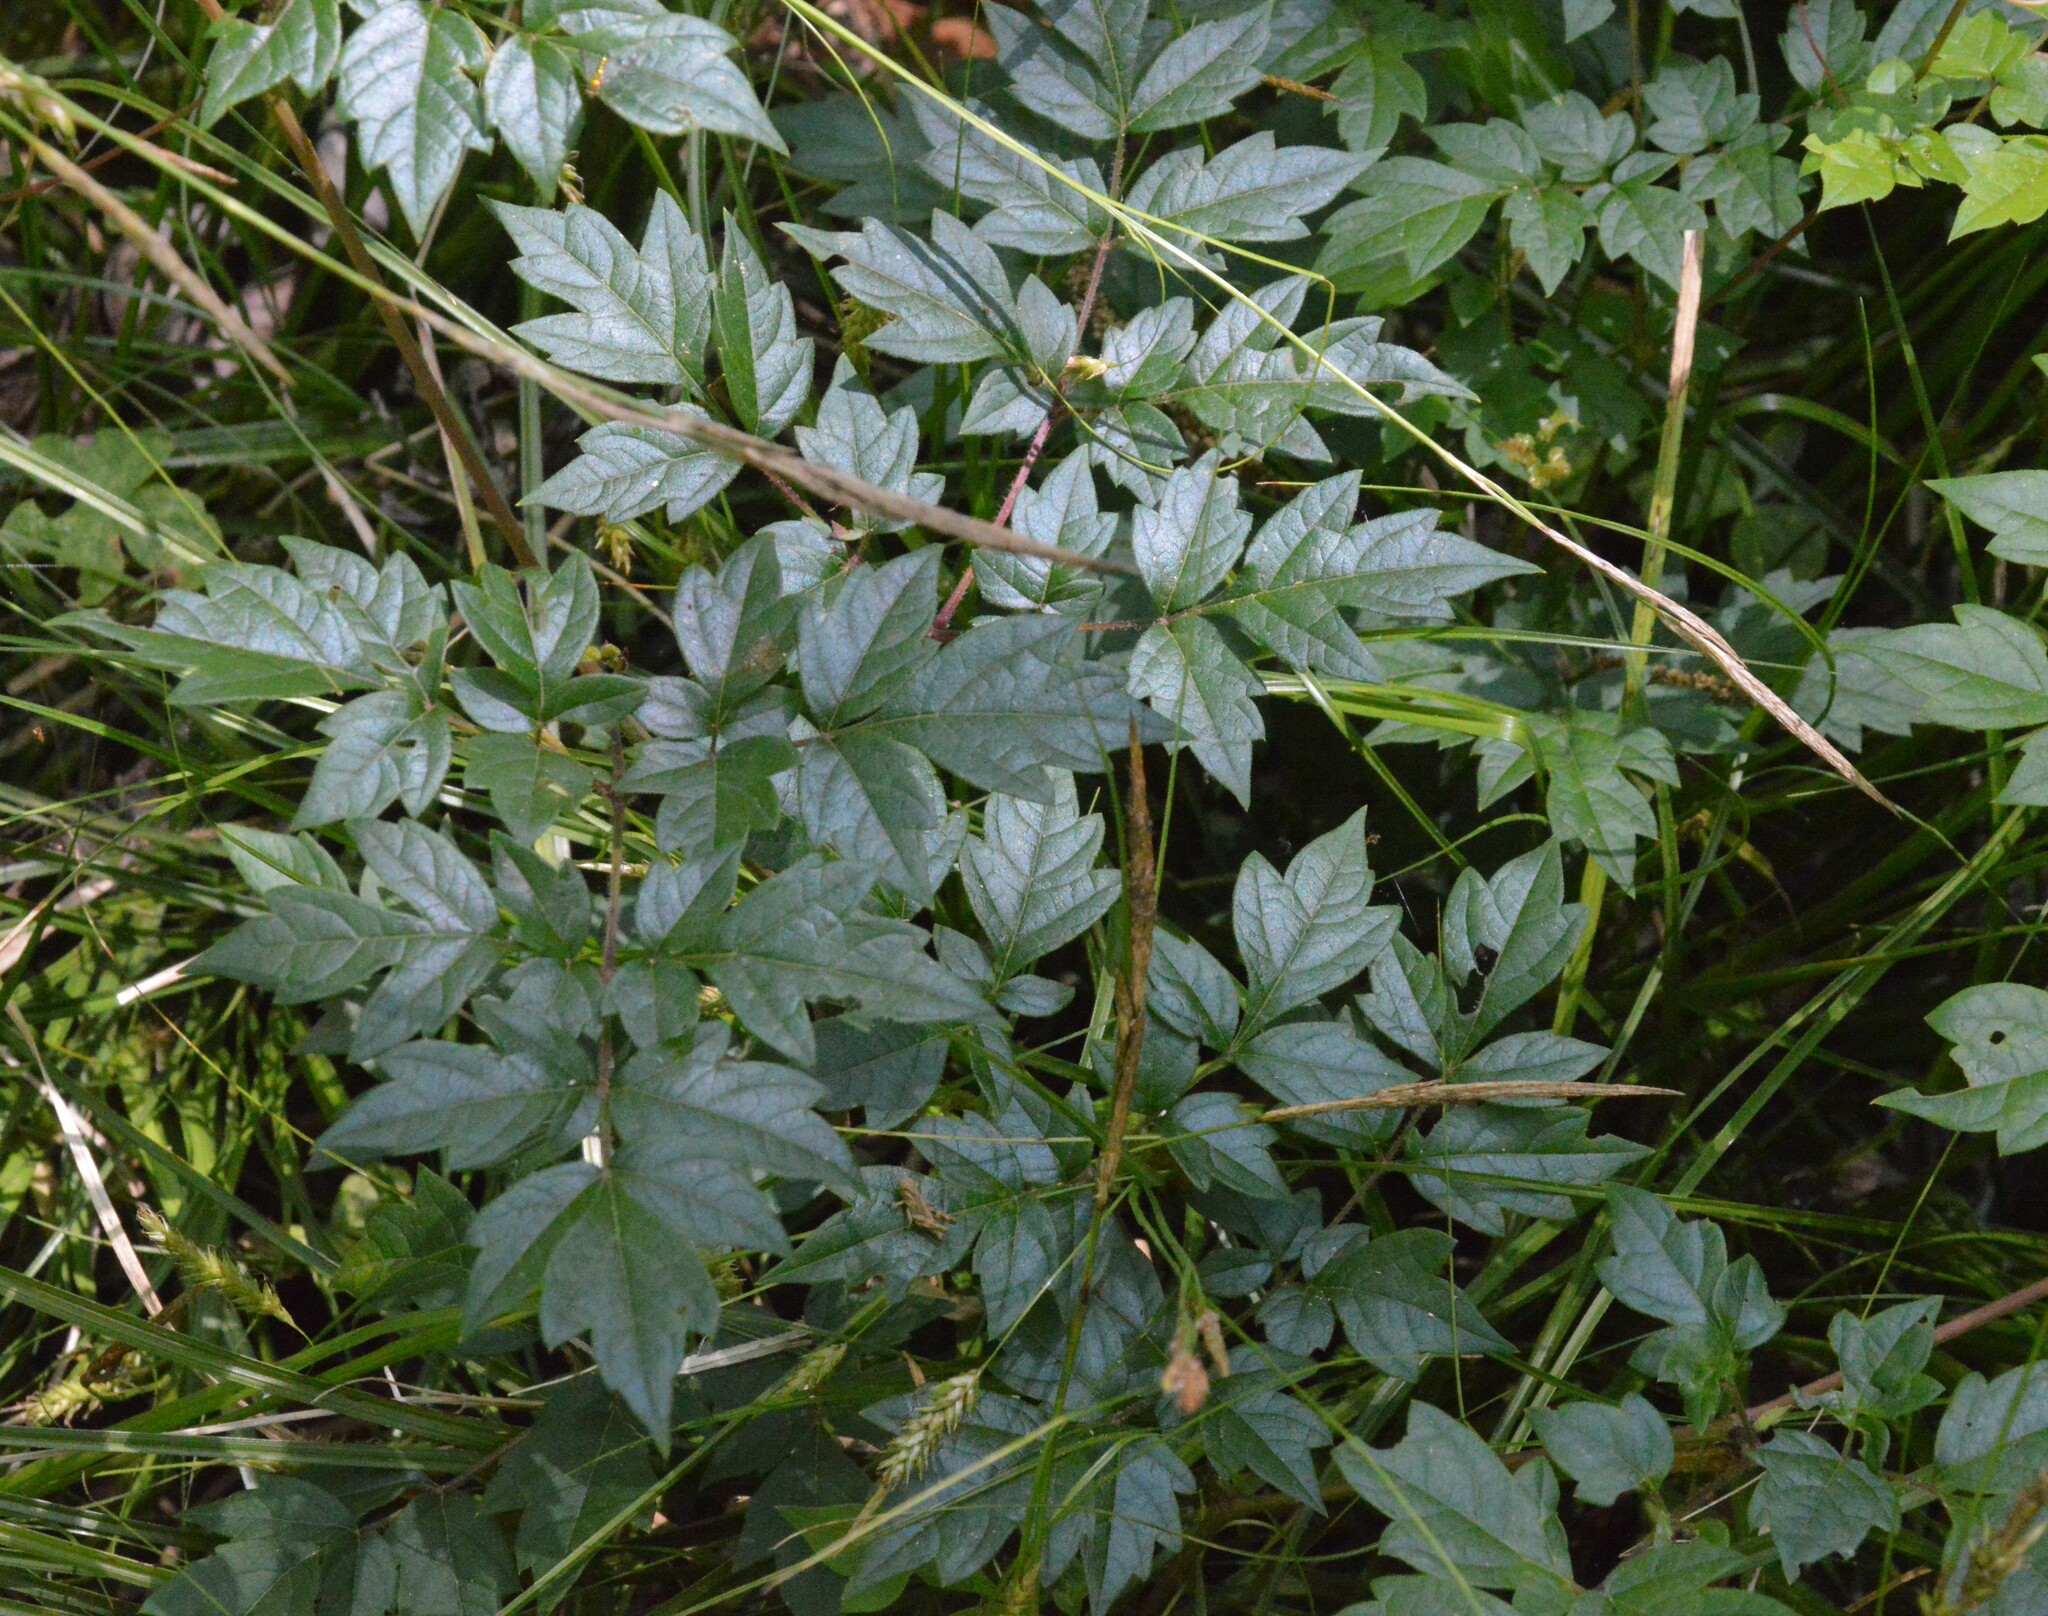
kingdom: Plantae
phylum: Tracheophyta
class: Magnoliopsida
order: Vitales
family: Vitaceae
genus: Nekemias
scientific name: Nekemias arborea
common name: Peppervine
